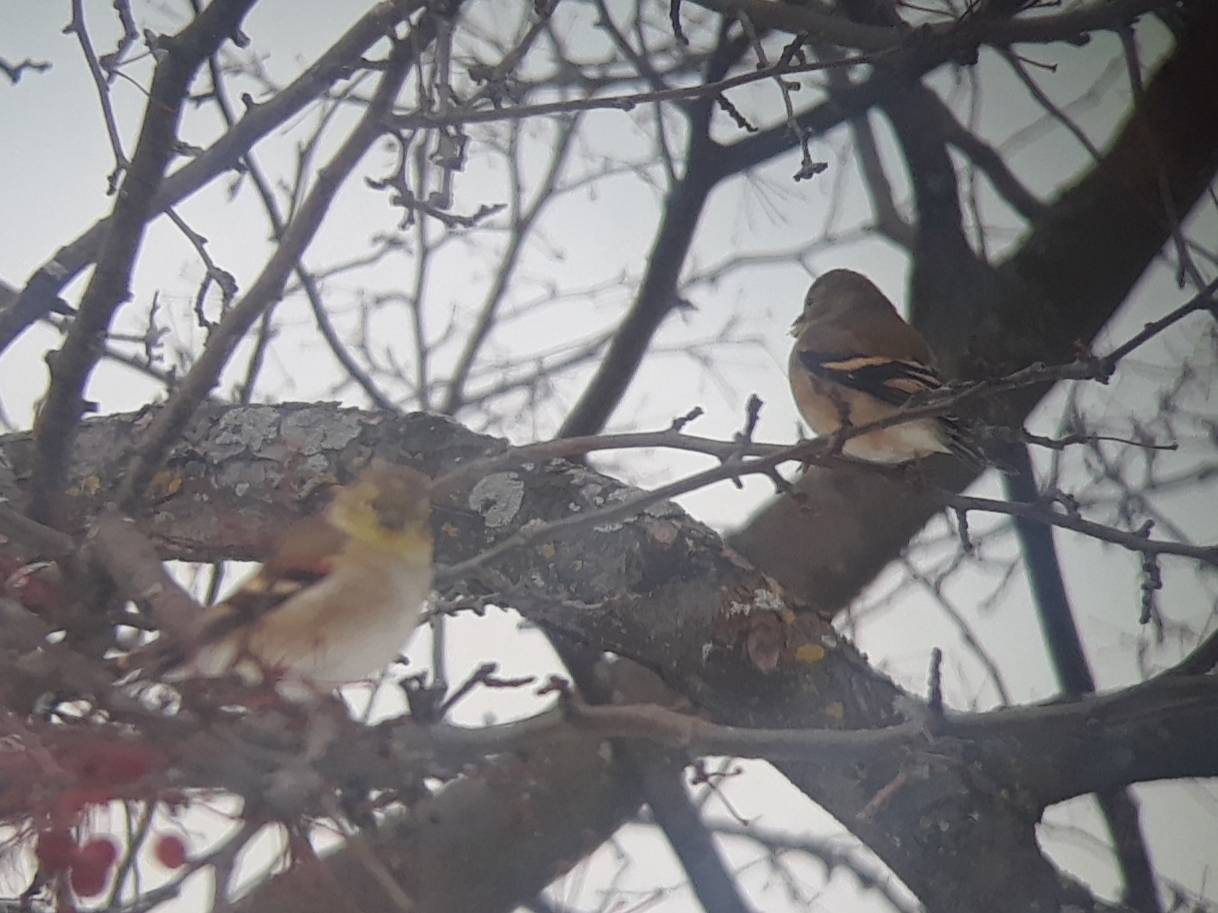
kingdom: Animalia
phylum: Chordata
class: Aves
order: Passeriformes
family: Fringillidae
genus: Spinus
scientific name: Spinus tristis
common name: American goldfinch
